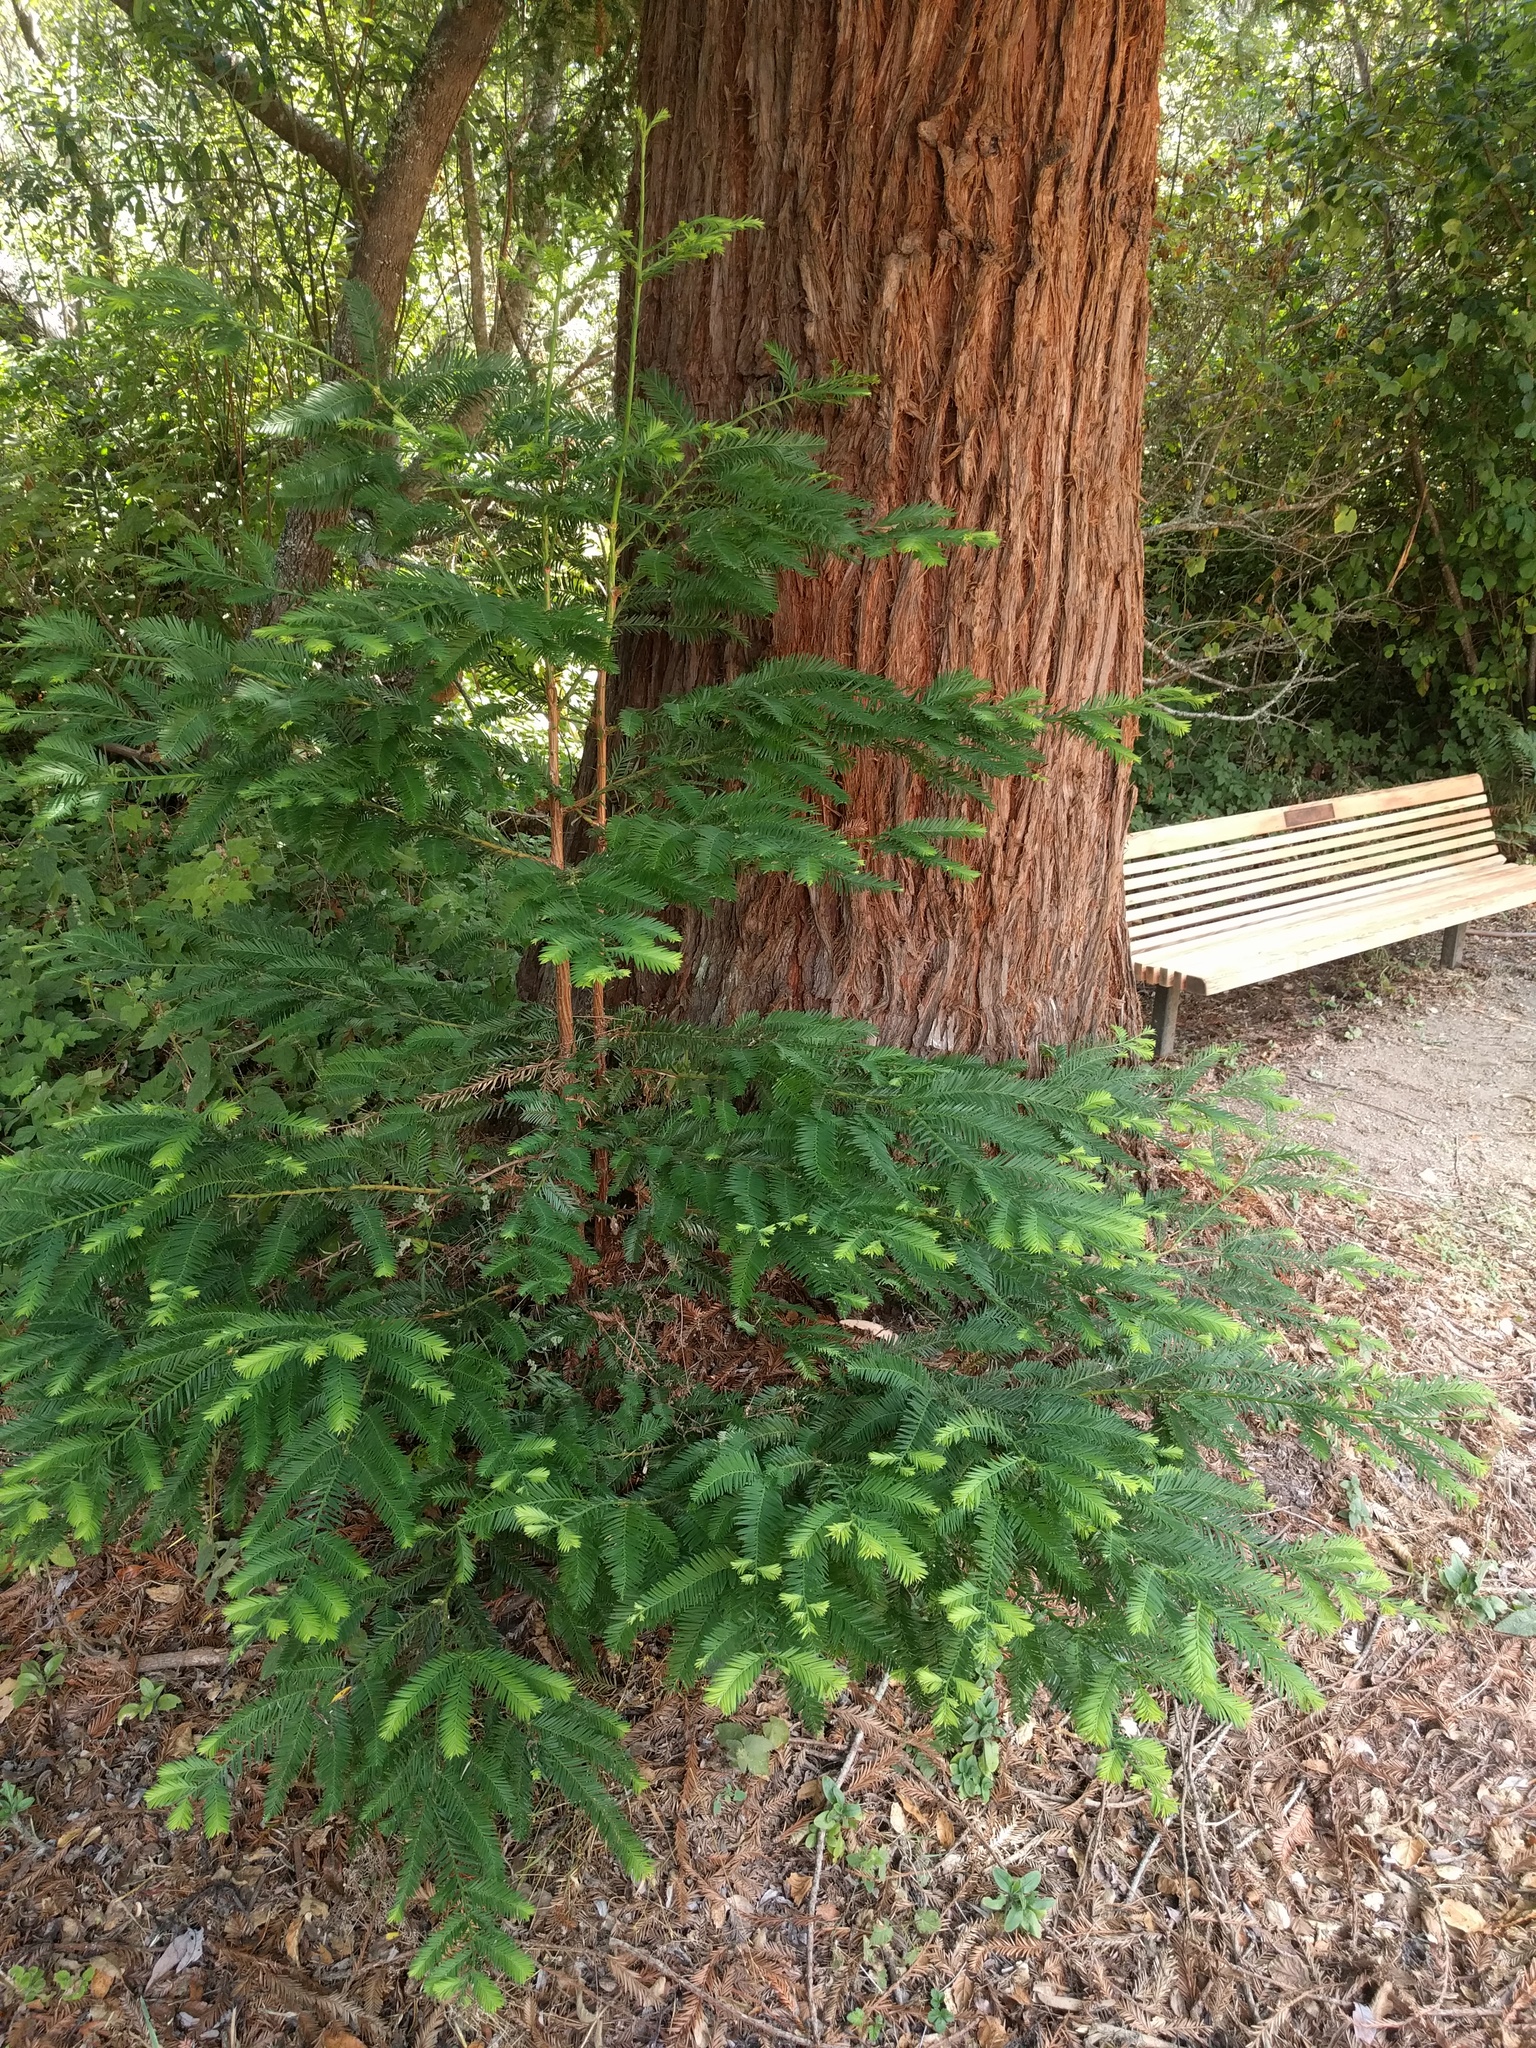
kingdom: Plantae
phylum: Tracheophyta
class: Pinopsida
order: Pinales
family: Cupressaceae
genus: Sequoia
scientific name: Sequoia sempervirens
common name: Coast redwood
